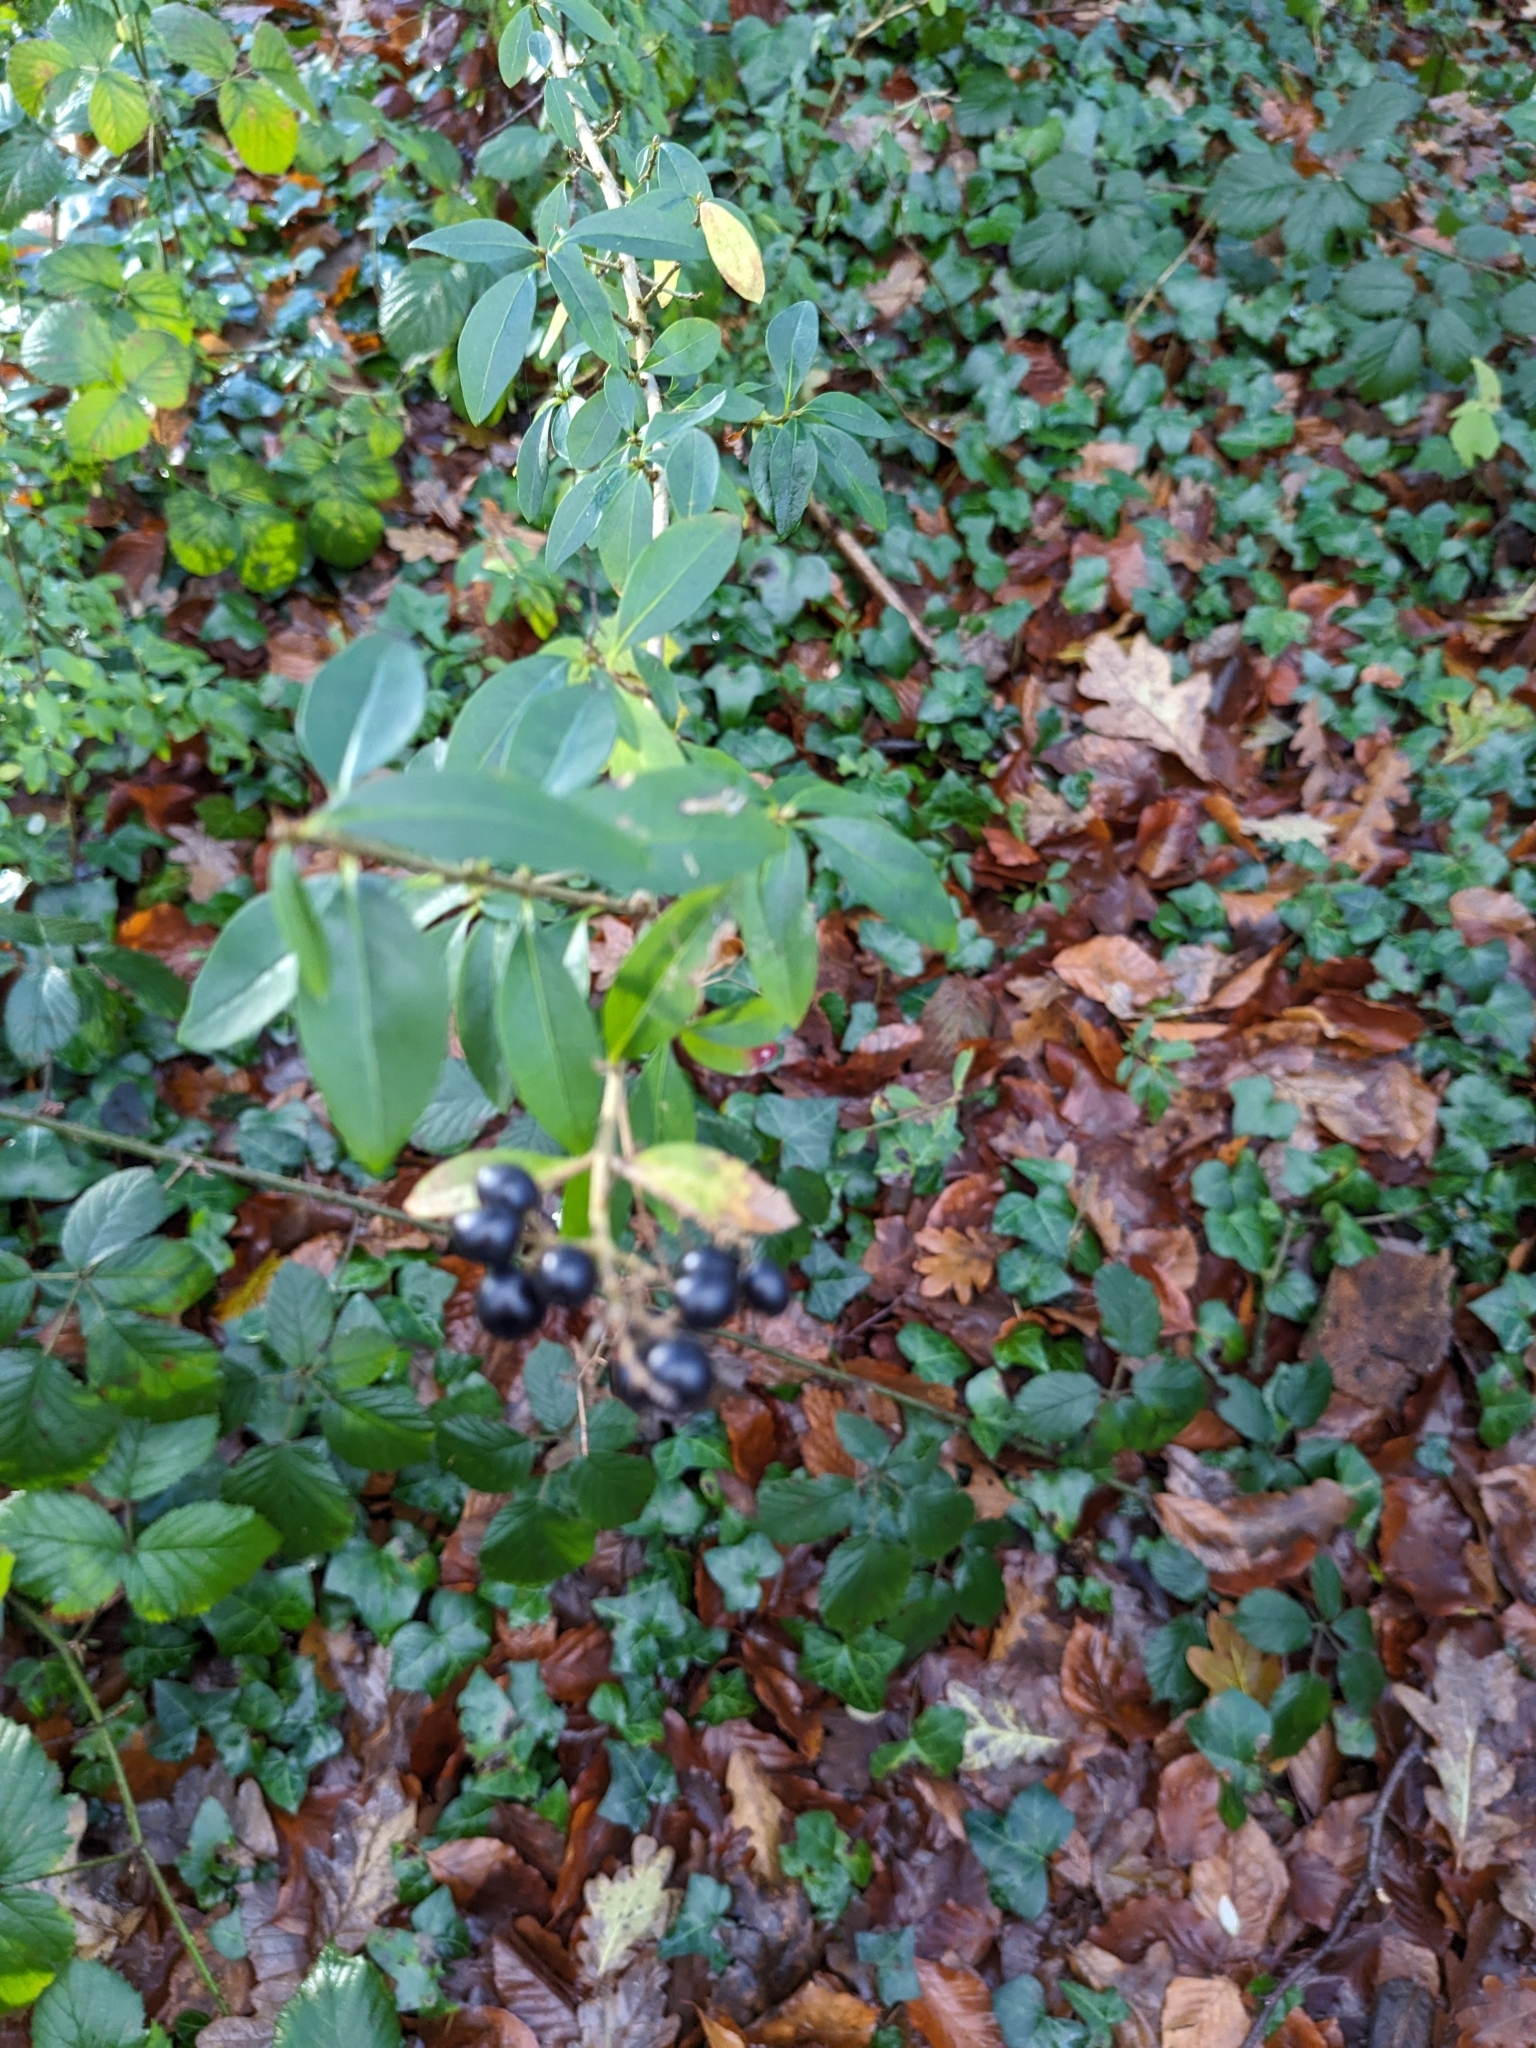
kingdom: Plantae
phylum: Tracheophyta
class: Magnoliopsida
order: Lamiales
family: Oleaceae
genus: Ligustrum
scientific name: Ligustrum vulgare
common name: Wild privet
